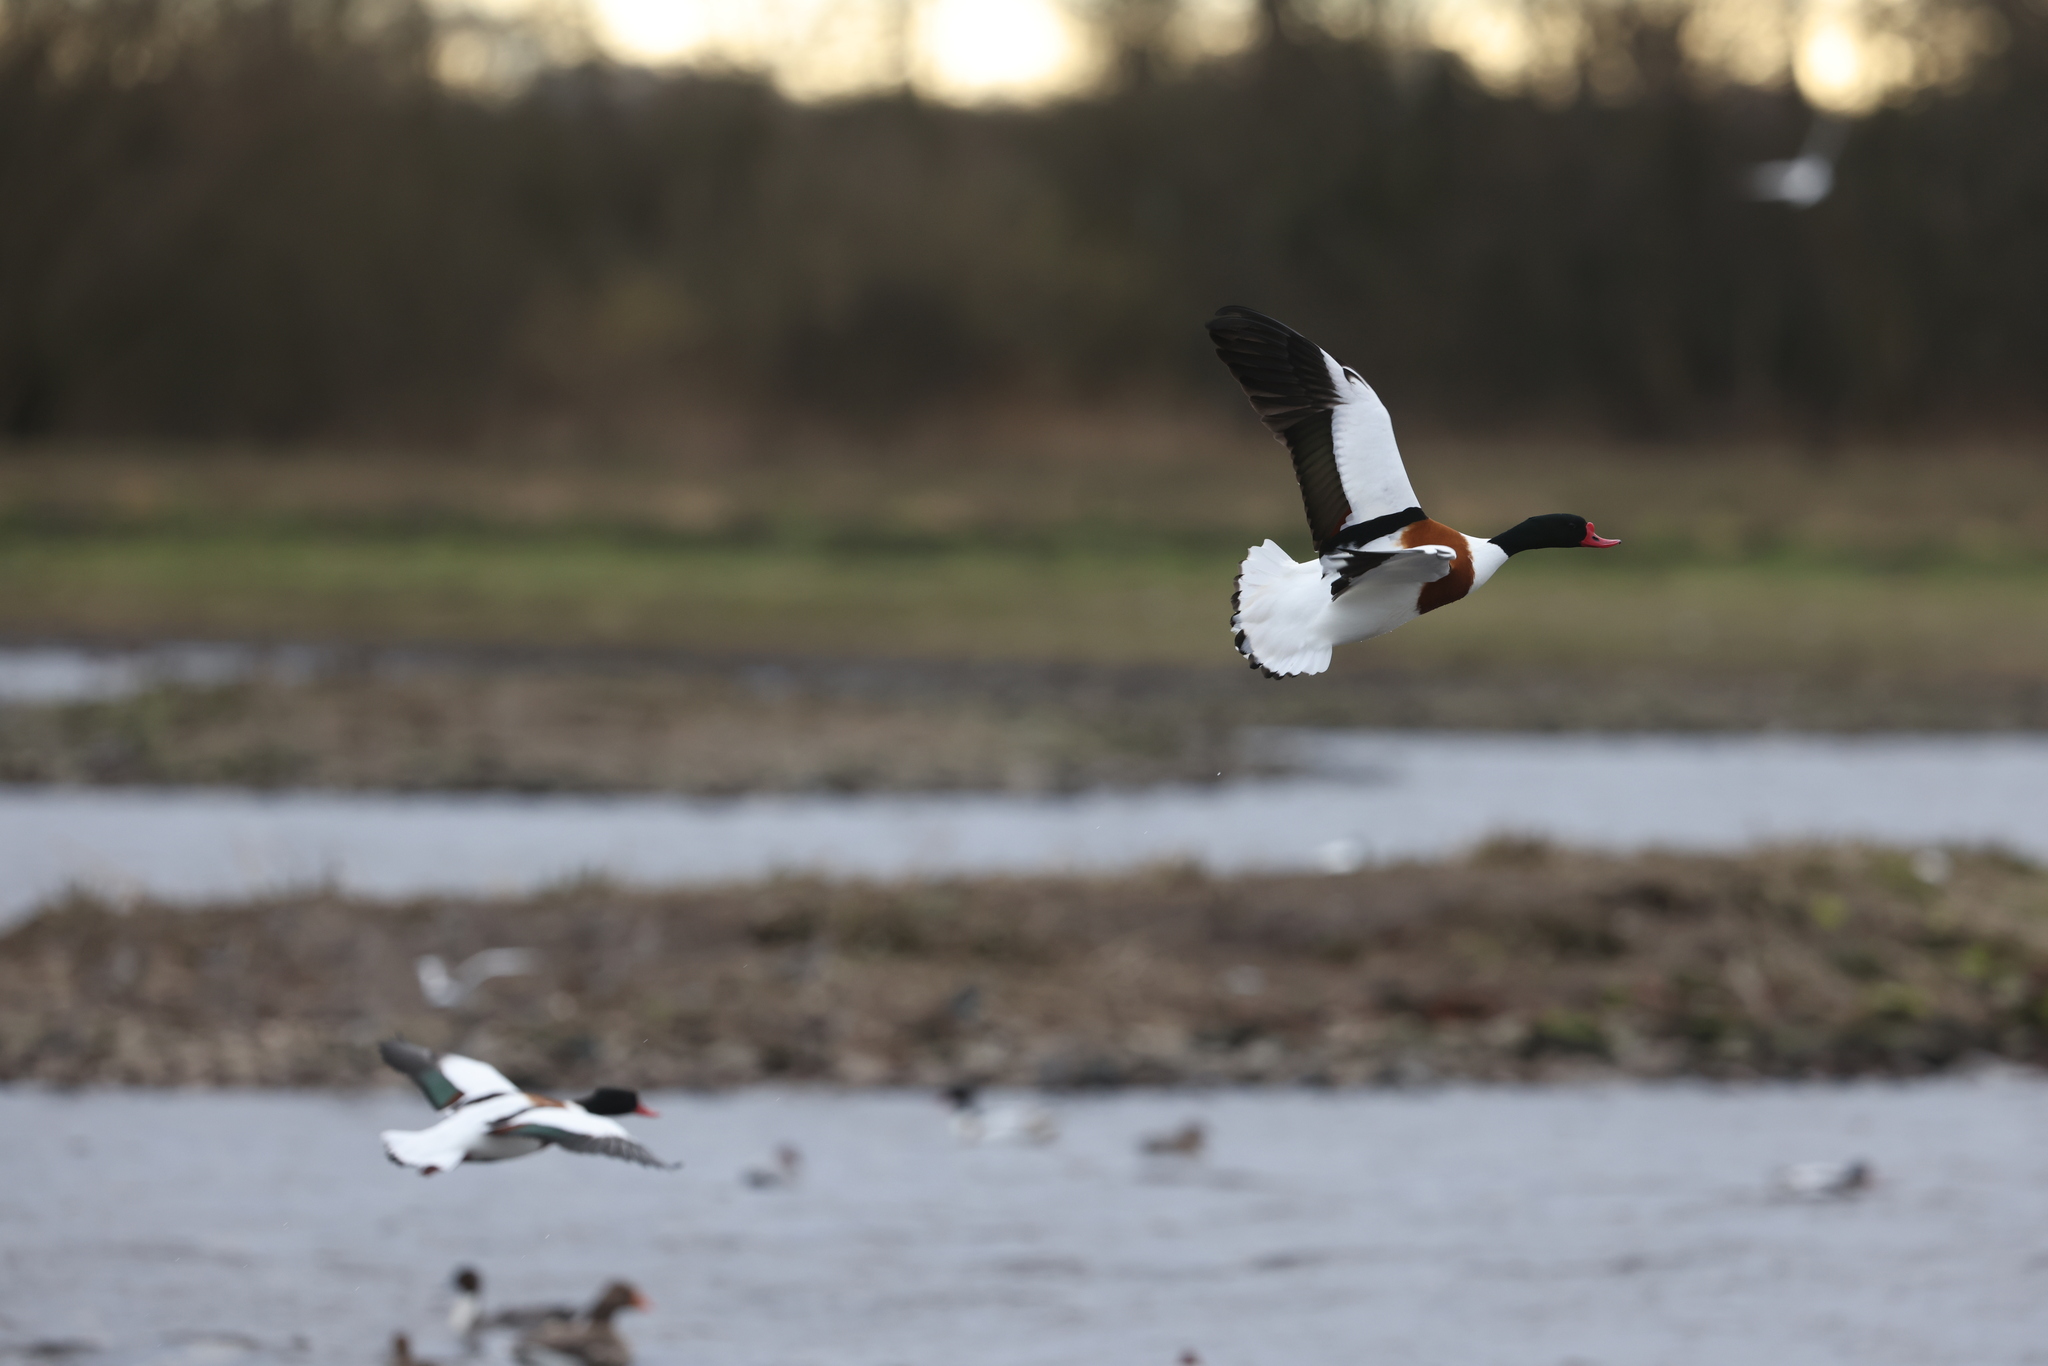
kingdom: Animalia
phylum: Chordata
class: Aves
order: Anseriformes
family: Anatidae
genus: Tadorna
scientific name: Tadorna tadorna
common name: Common shelduck
